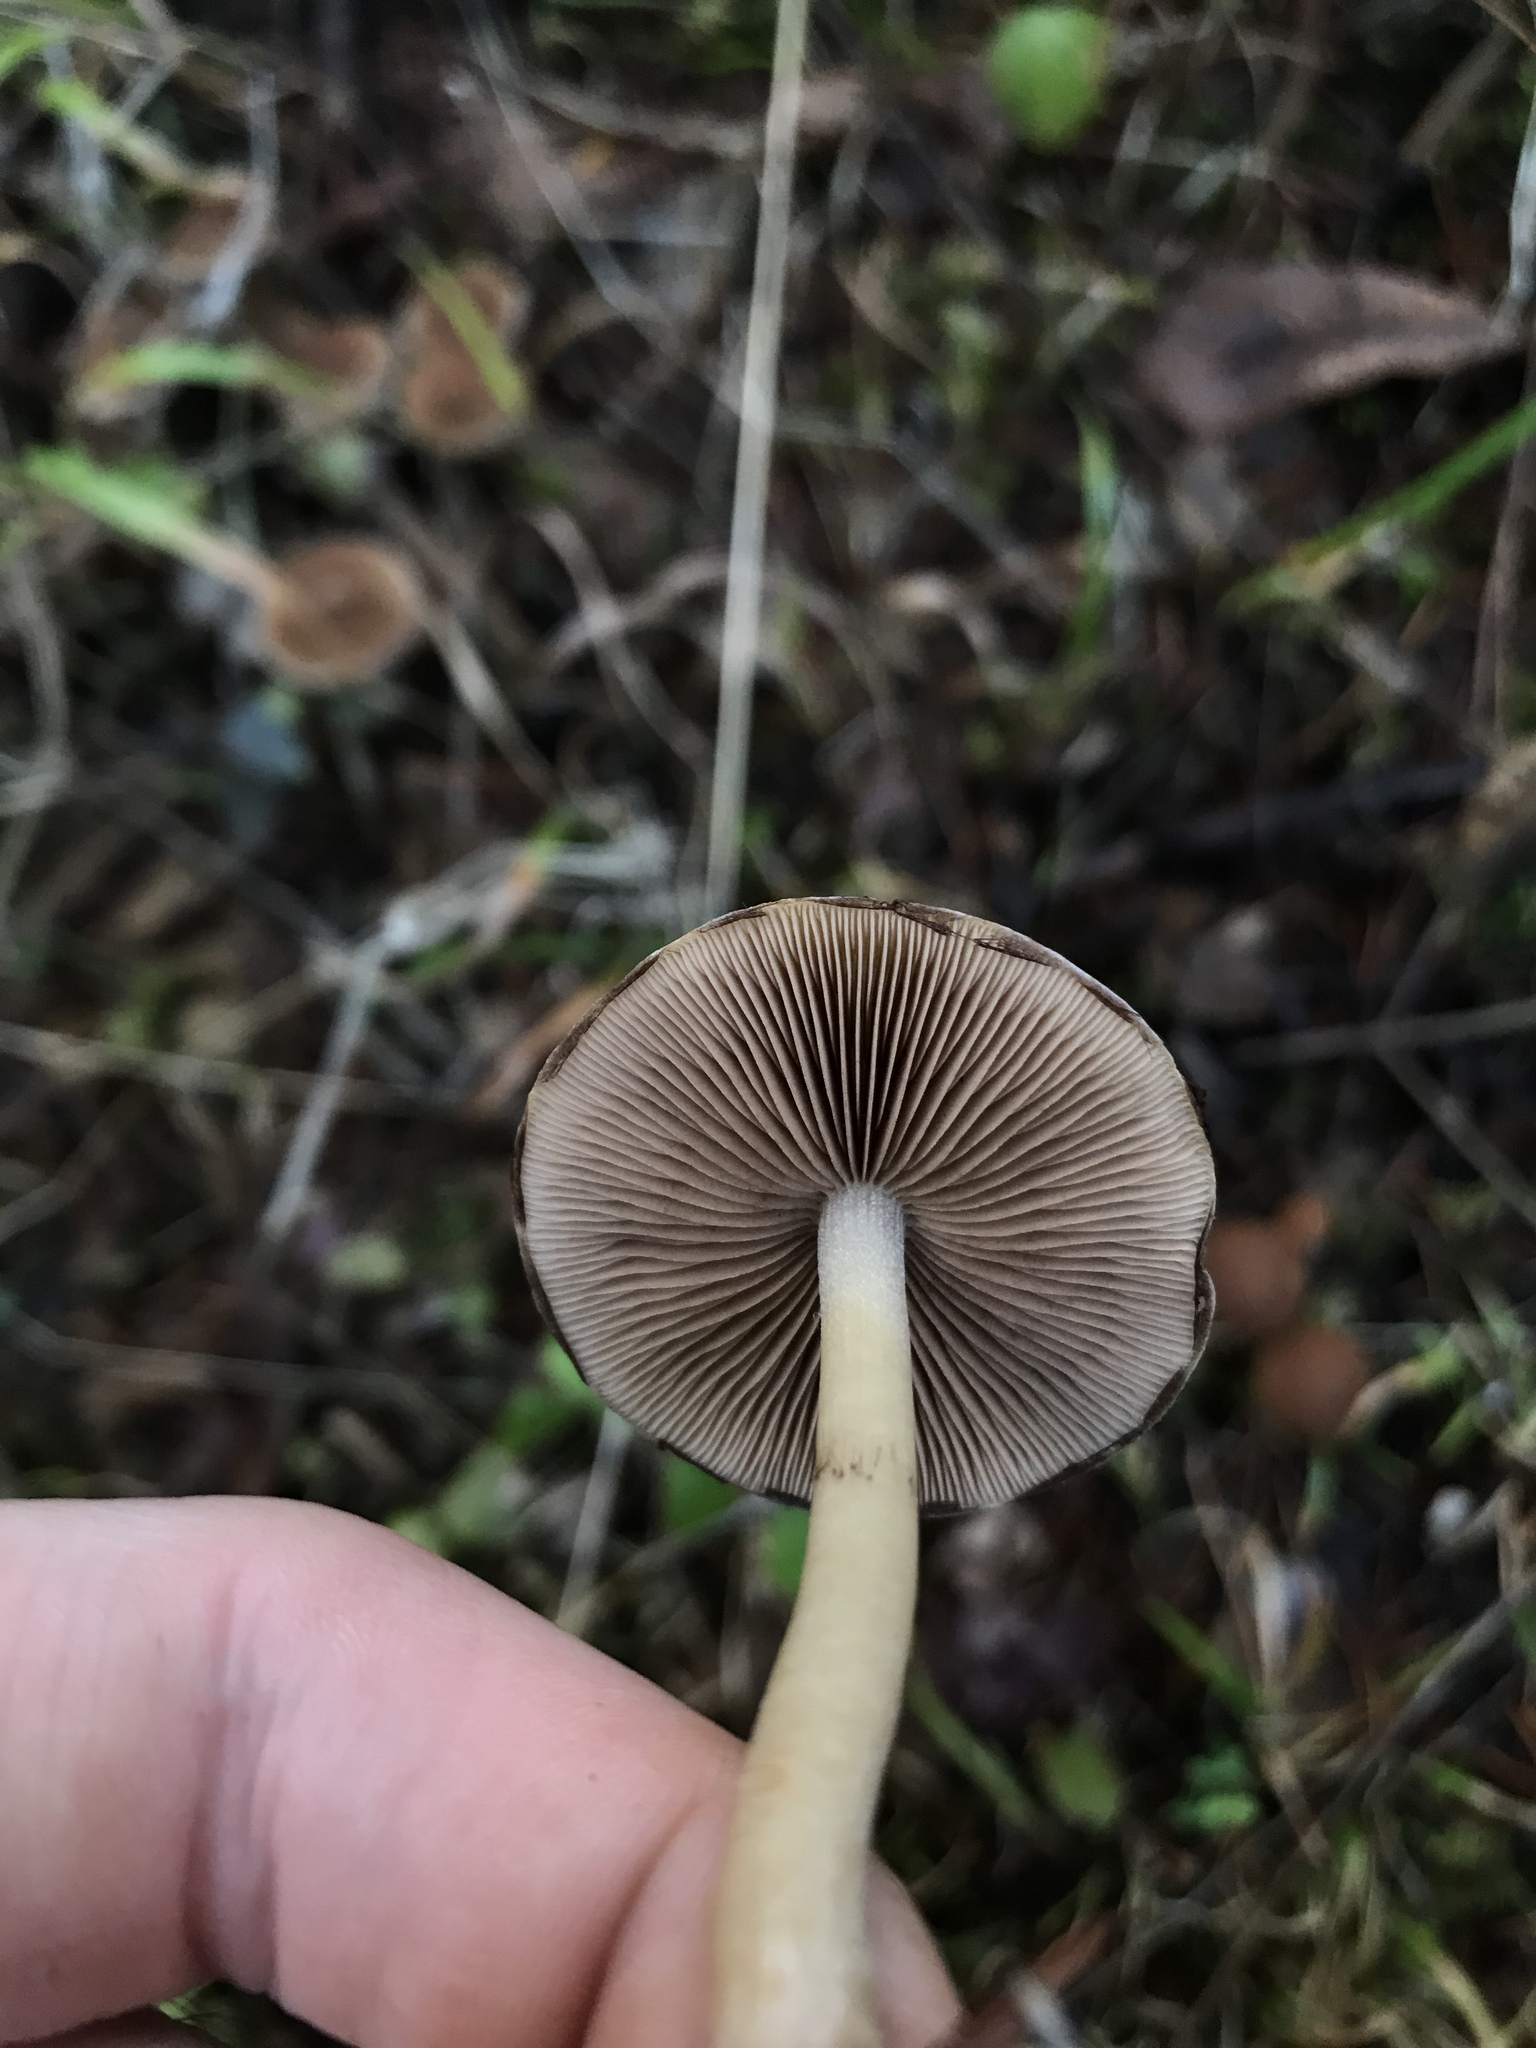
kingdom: Fungi
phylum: Basidiomycota
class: Agaricomycetes
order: Agaricales
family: Psathyrellaceae
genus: Psathyrella
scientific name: Psathyrella piluliformis
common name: Common stump brittlestem
